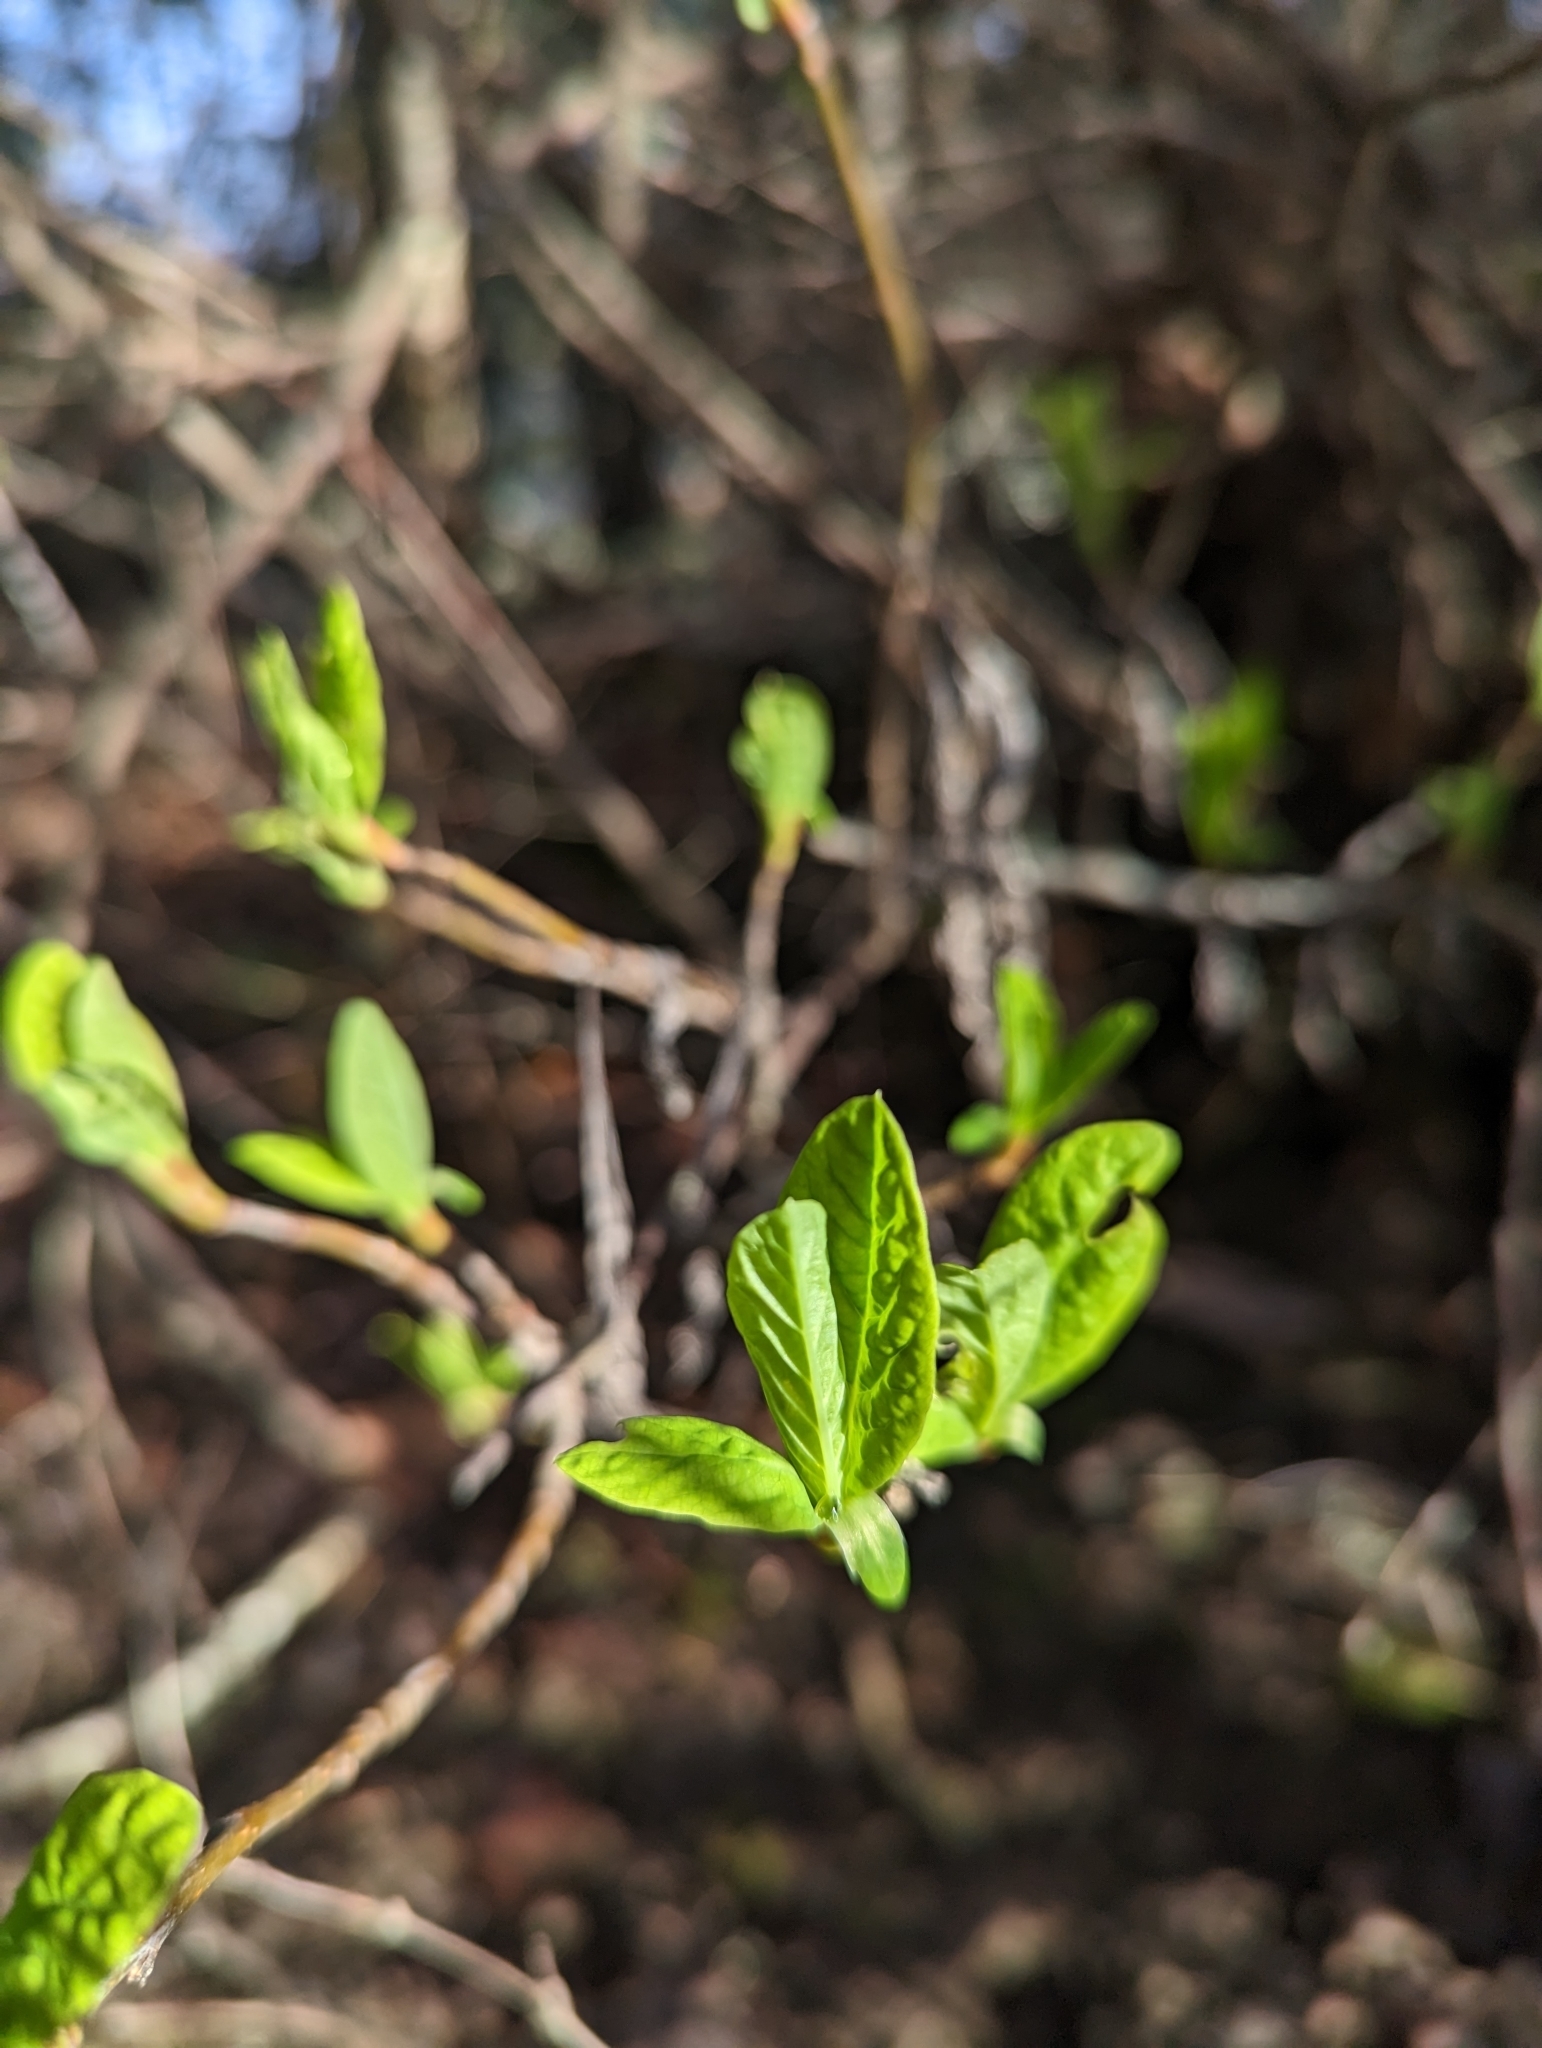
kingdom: Plantae
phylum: Tracheophyta
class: Magnoliopsida
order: Rosales
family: Rosaceae
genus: Oemleria
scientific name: Oemleria cerasiformis
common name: Osoberry
